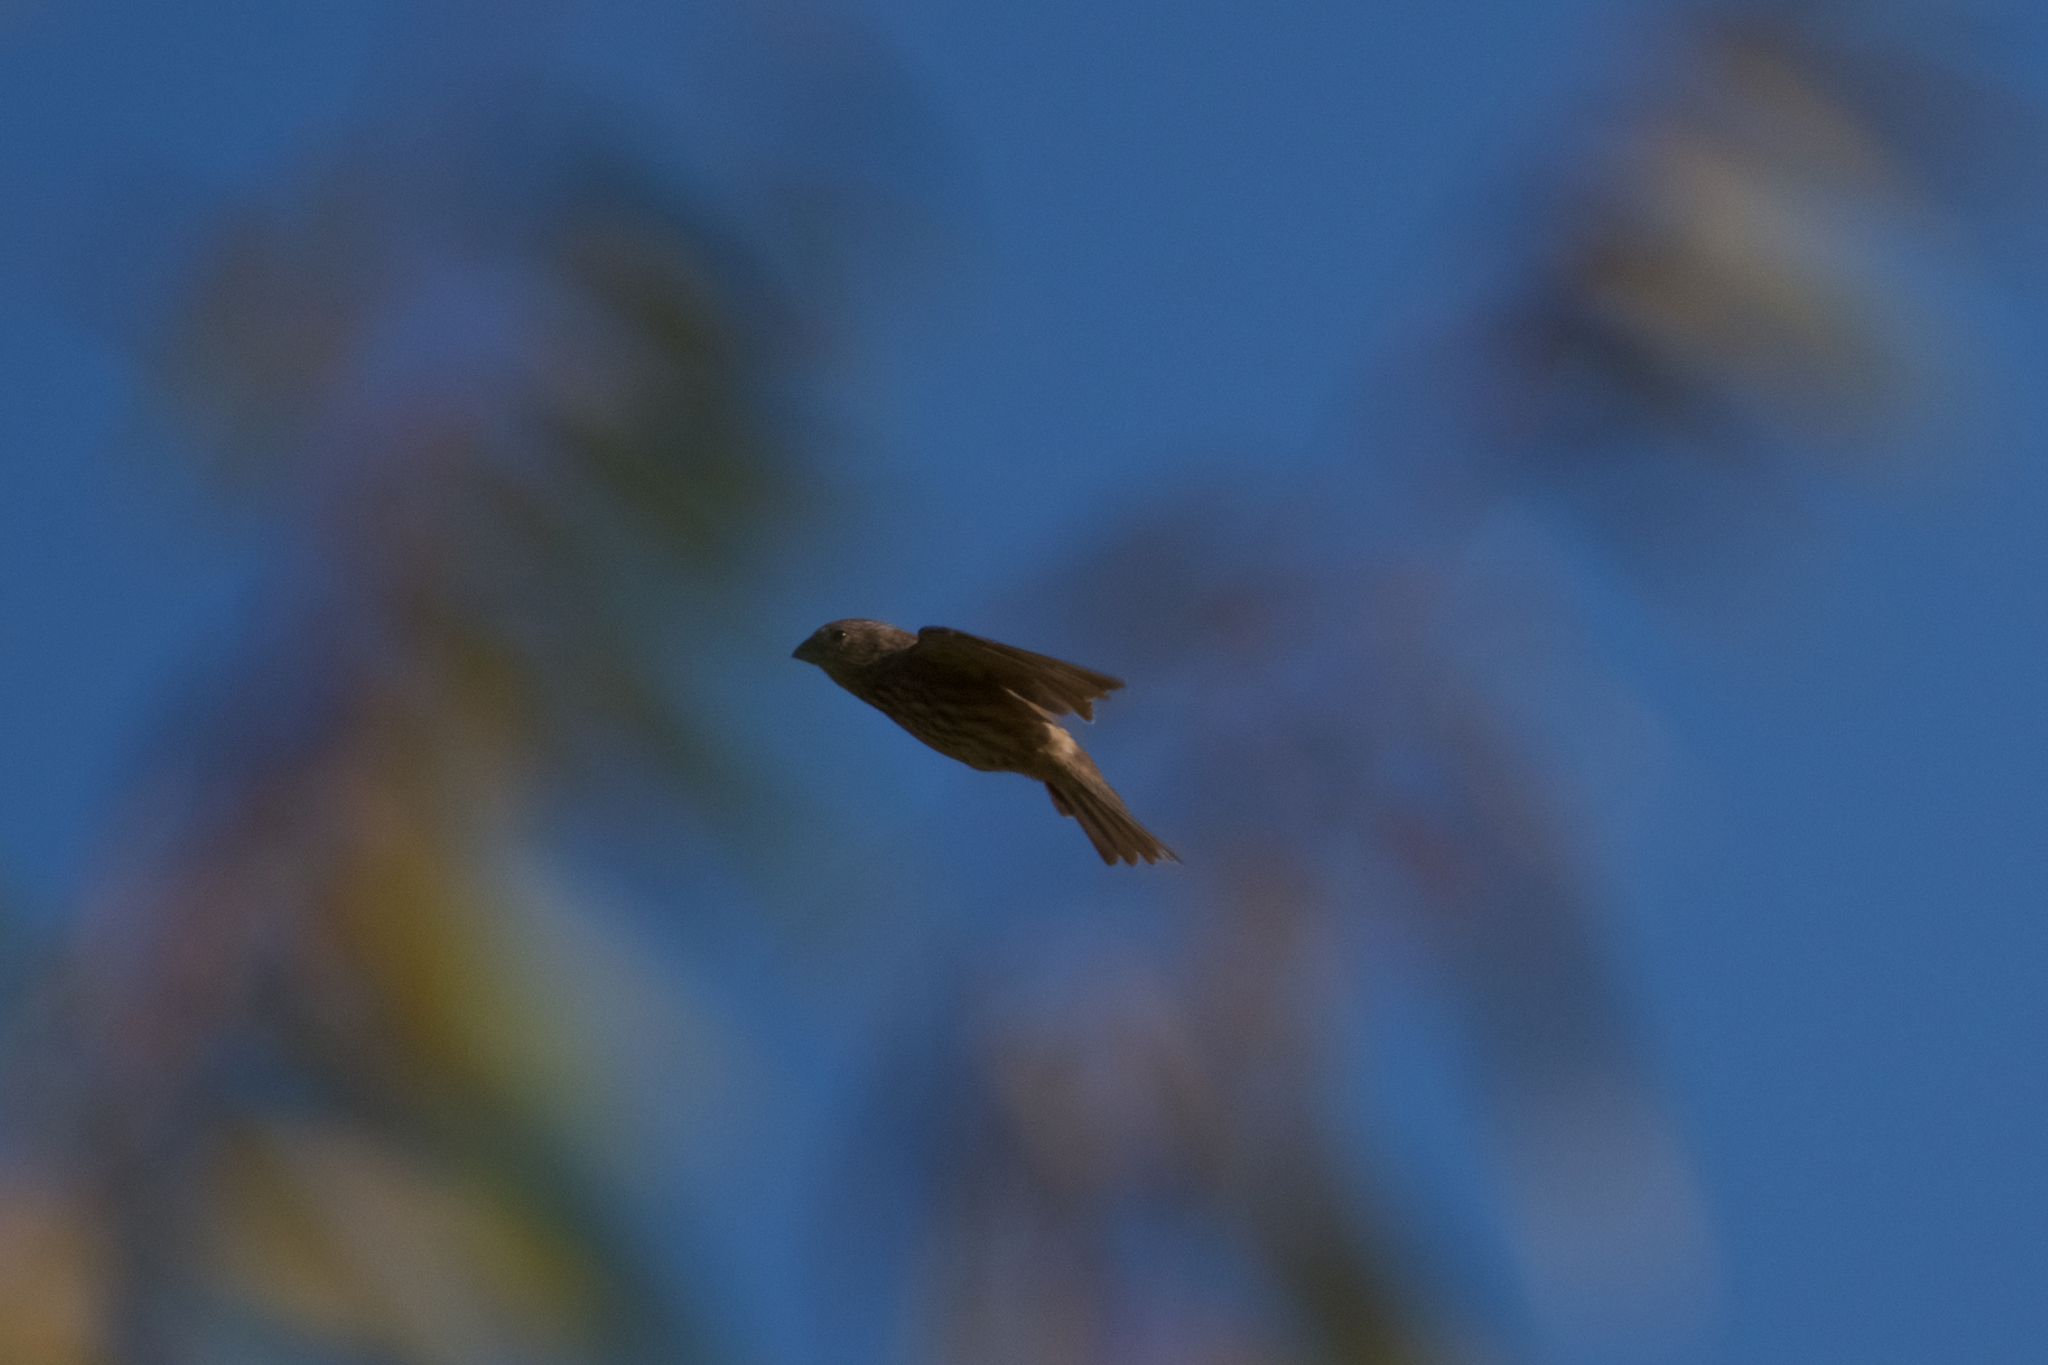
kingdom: Animalia
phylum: Chordata
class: Aves
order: Passeriformes
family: Fringillidae
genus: Haemorhous
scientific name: Haemorhous mexicanus
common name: House finch
